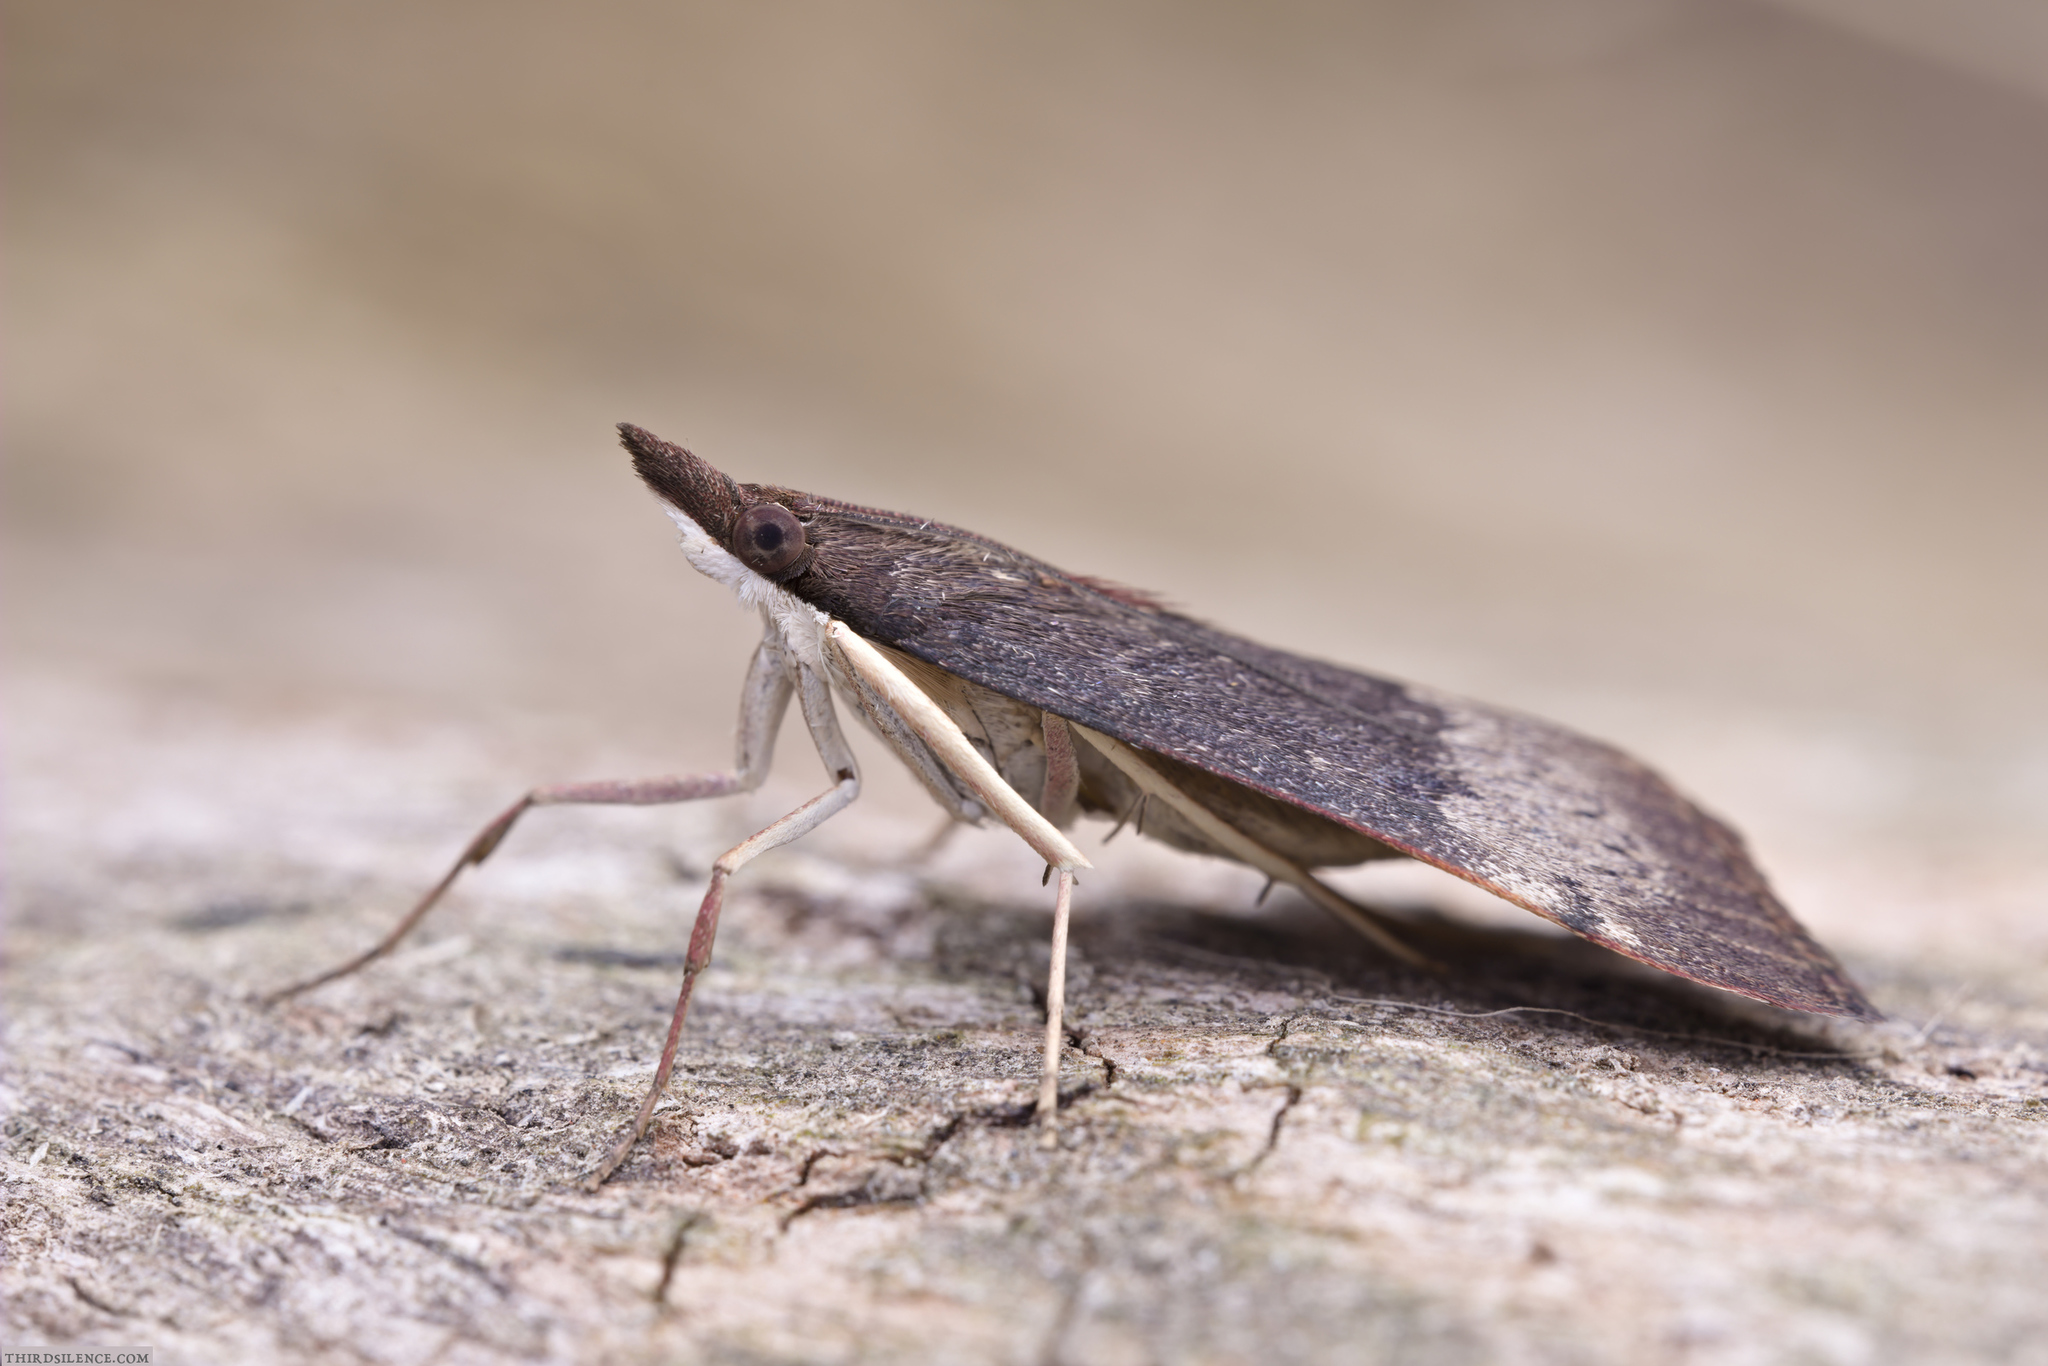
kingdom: Animalia
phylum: Arthropoda
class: Insecta
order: Lepidoptera
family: Crambidae
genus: Uresiphita
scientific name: Uresiphita ornithopteralis
